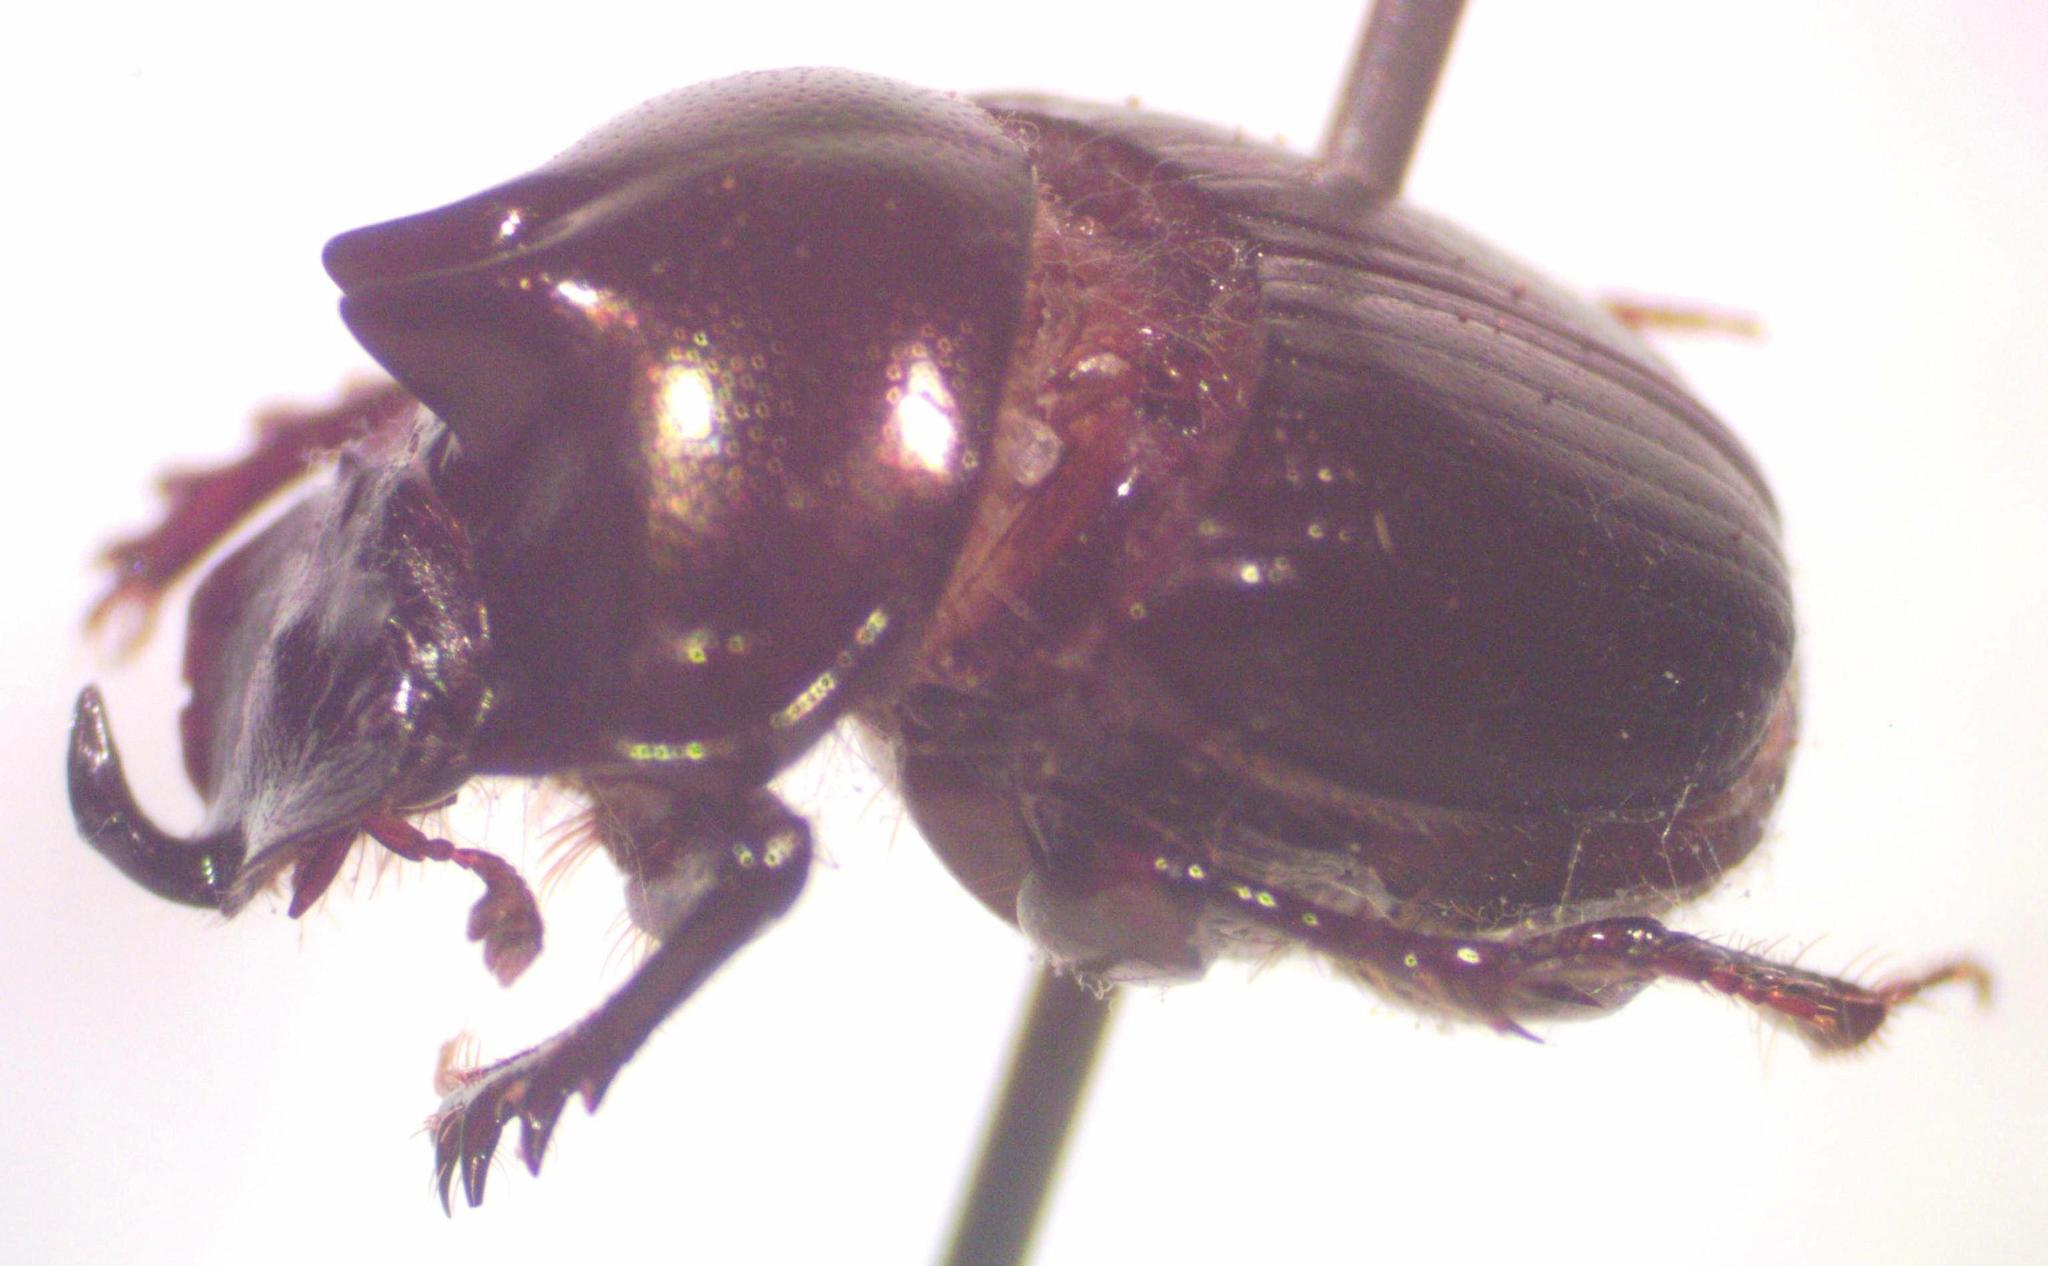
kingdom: Animalia
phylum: Arthropoda
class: Insecta
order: Coleoptera
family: Scarabaeidae
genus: Onthophagus
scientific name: Onthophagus praecellens
